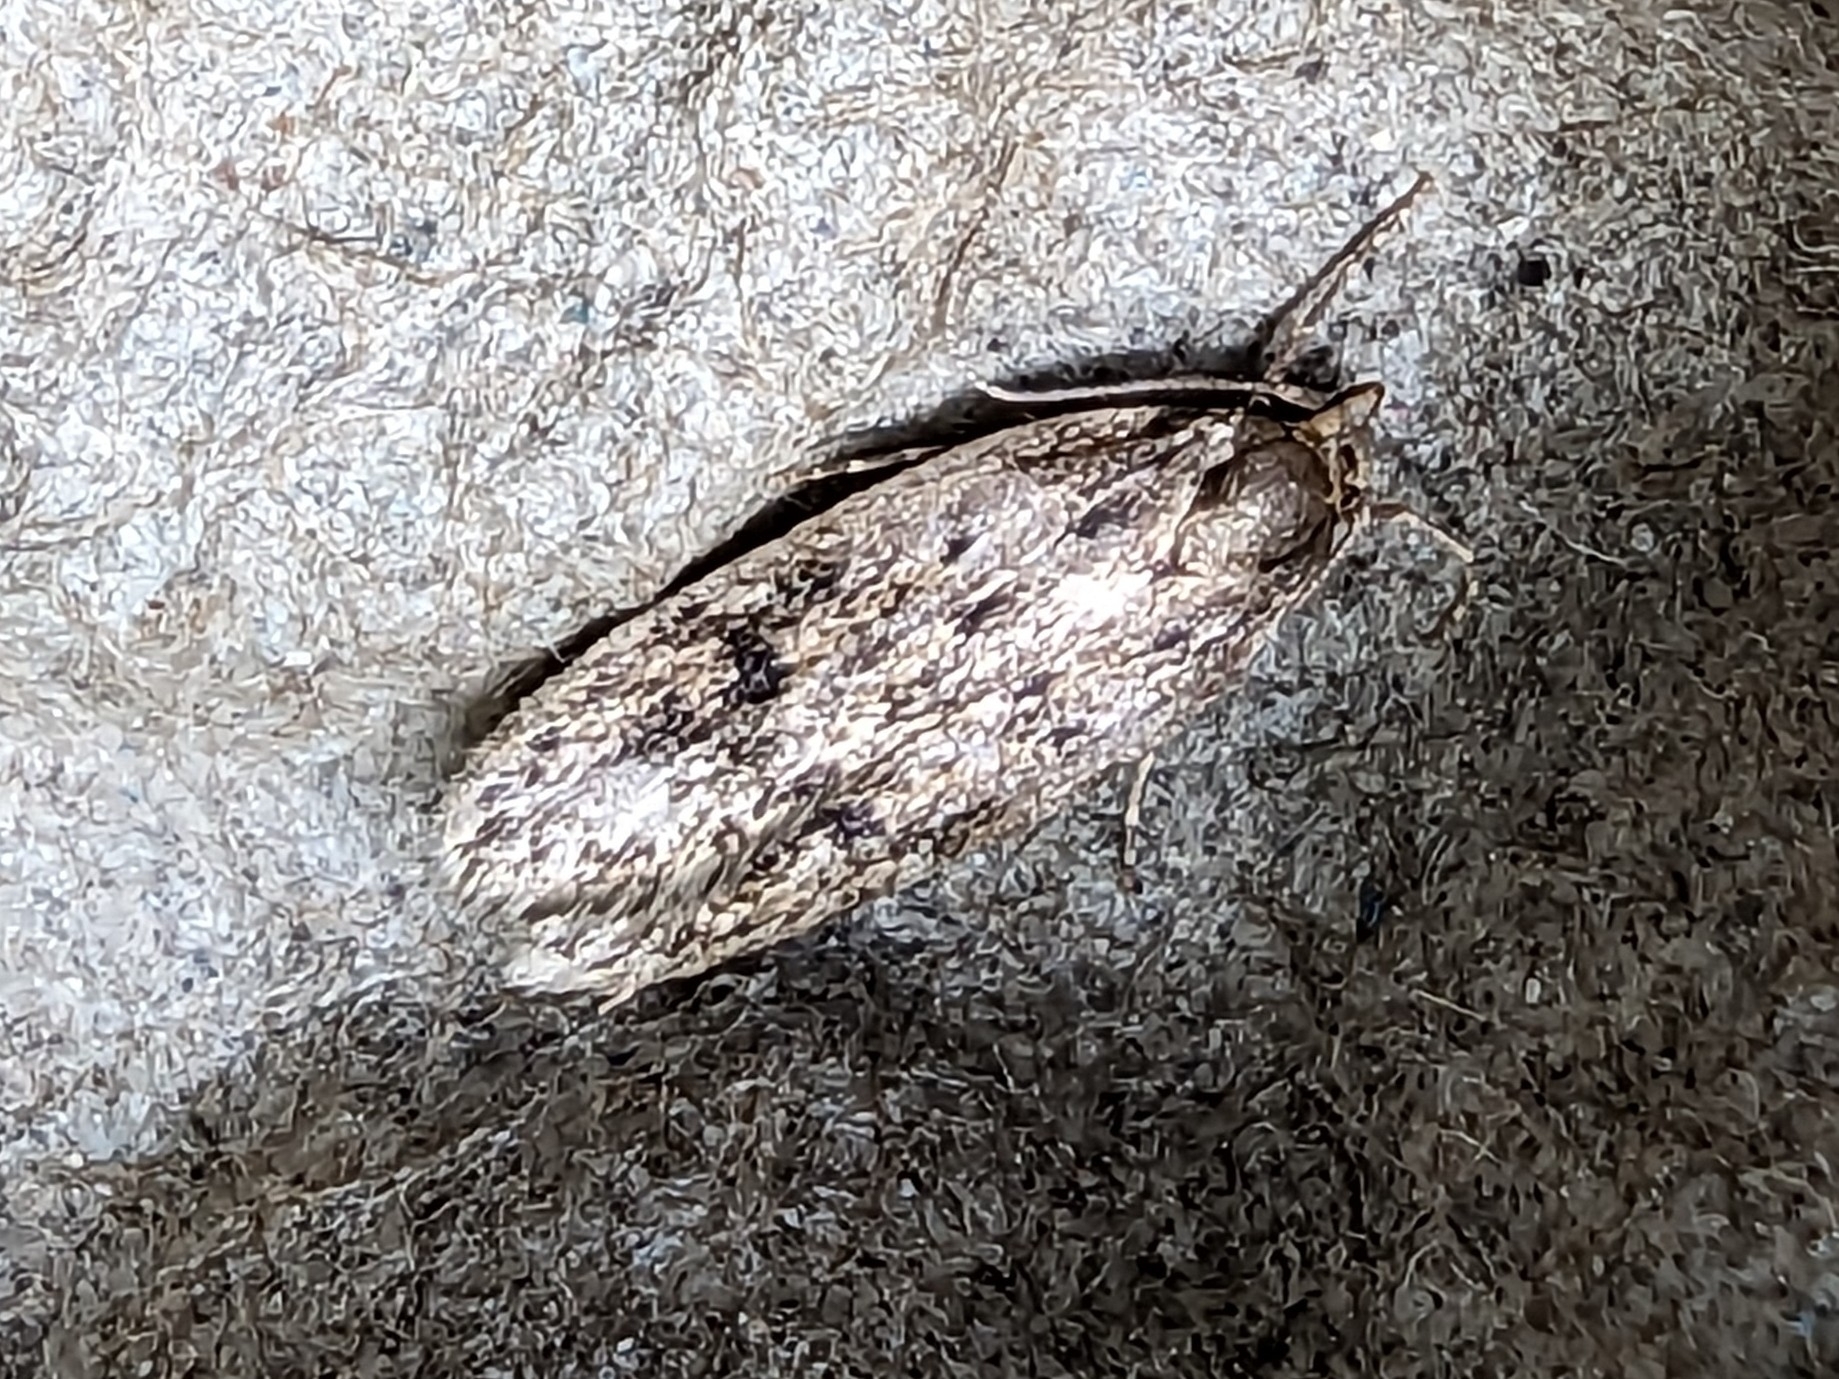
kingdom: Animalia
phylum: Arthropoda
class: Insecta
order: Lepidoptera
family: Oecophoridae
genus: Hofmannophila
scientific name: Hofmannophila pseudospretella
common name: Brown house moth
